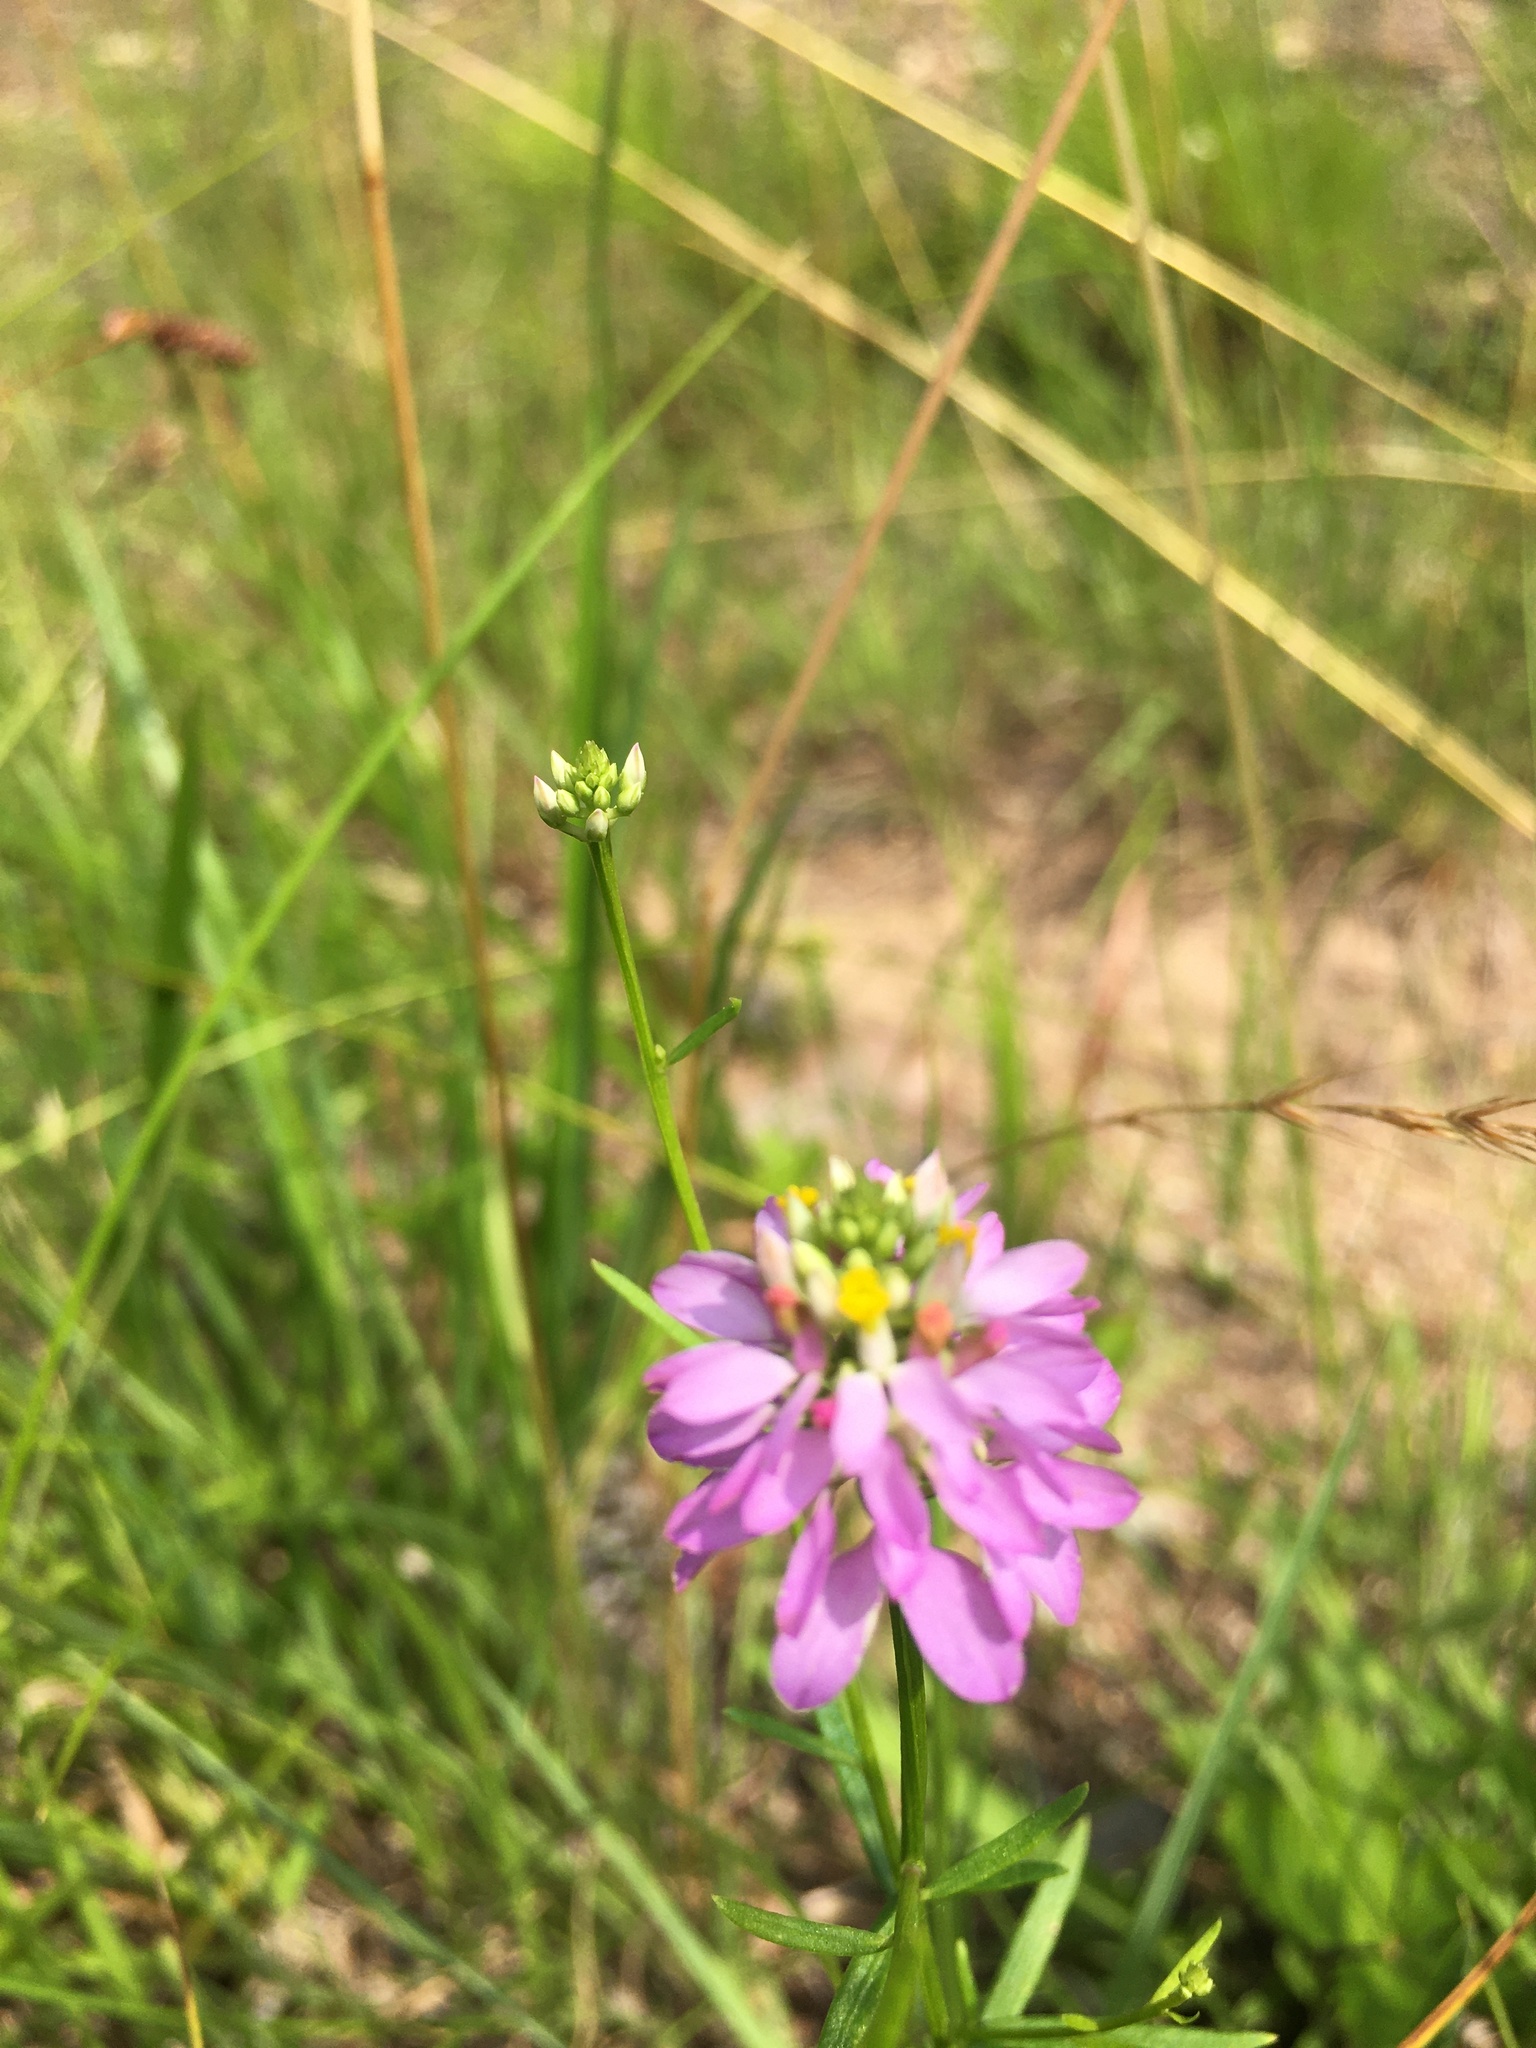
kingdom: Plantae
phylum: Tracheophyta
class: Magnoliopsida
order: Fabales
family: Polygalaceae
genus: Polygala
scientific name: Polygala curtissii
